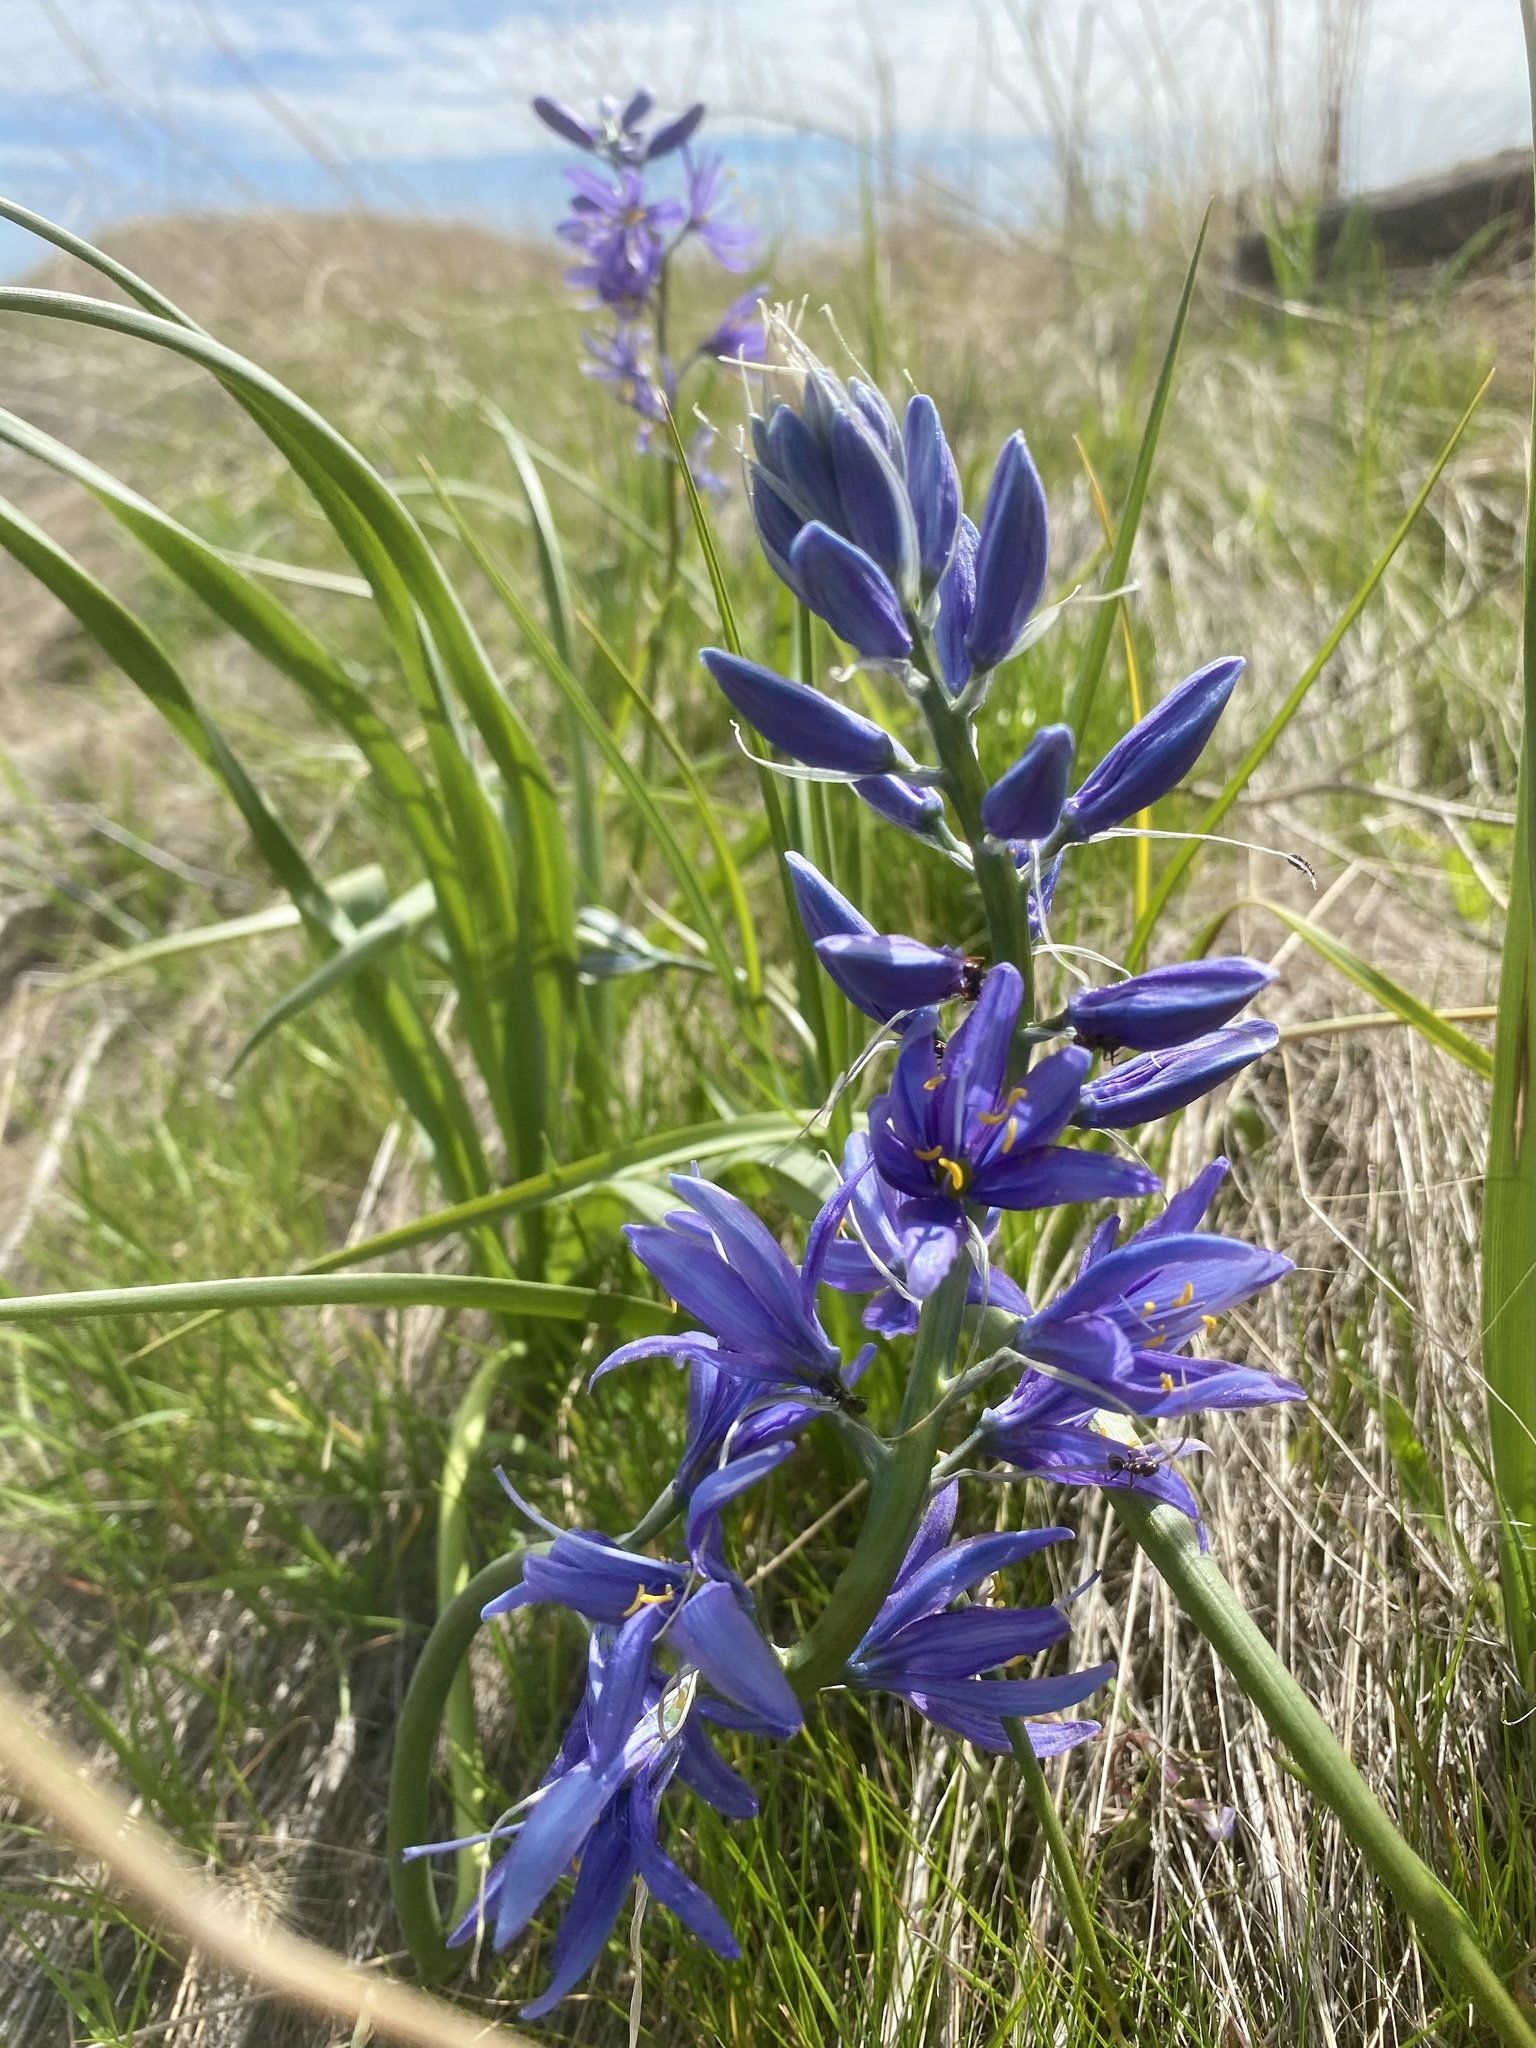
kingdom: Plantae
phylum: Tracheophyta
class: Liliopsida
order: Asparagales
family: Asparagaceae
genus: Camassia
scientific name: Camassia quamash
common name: Common camas
